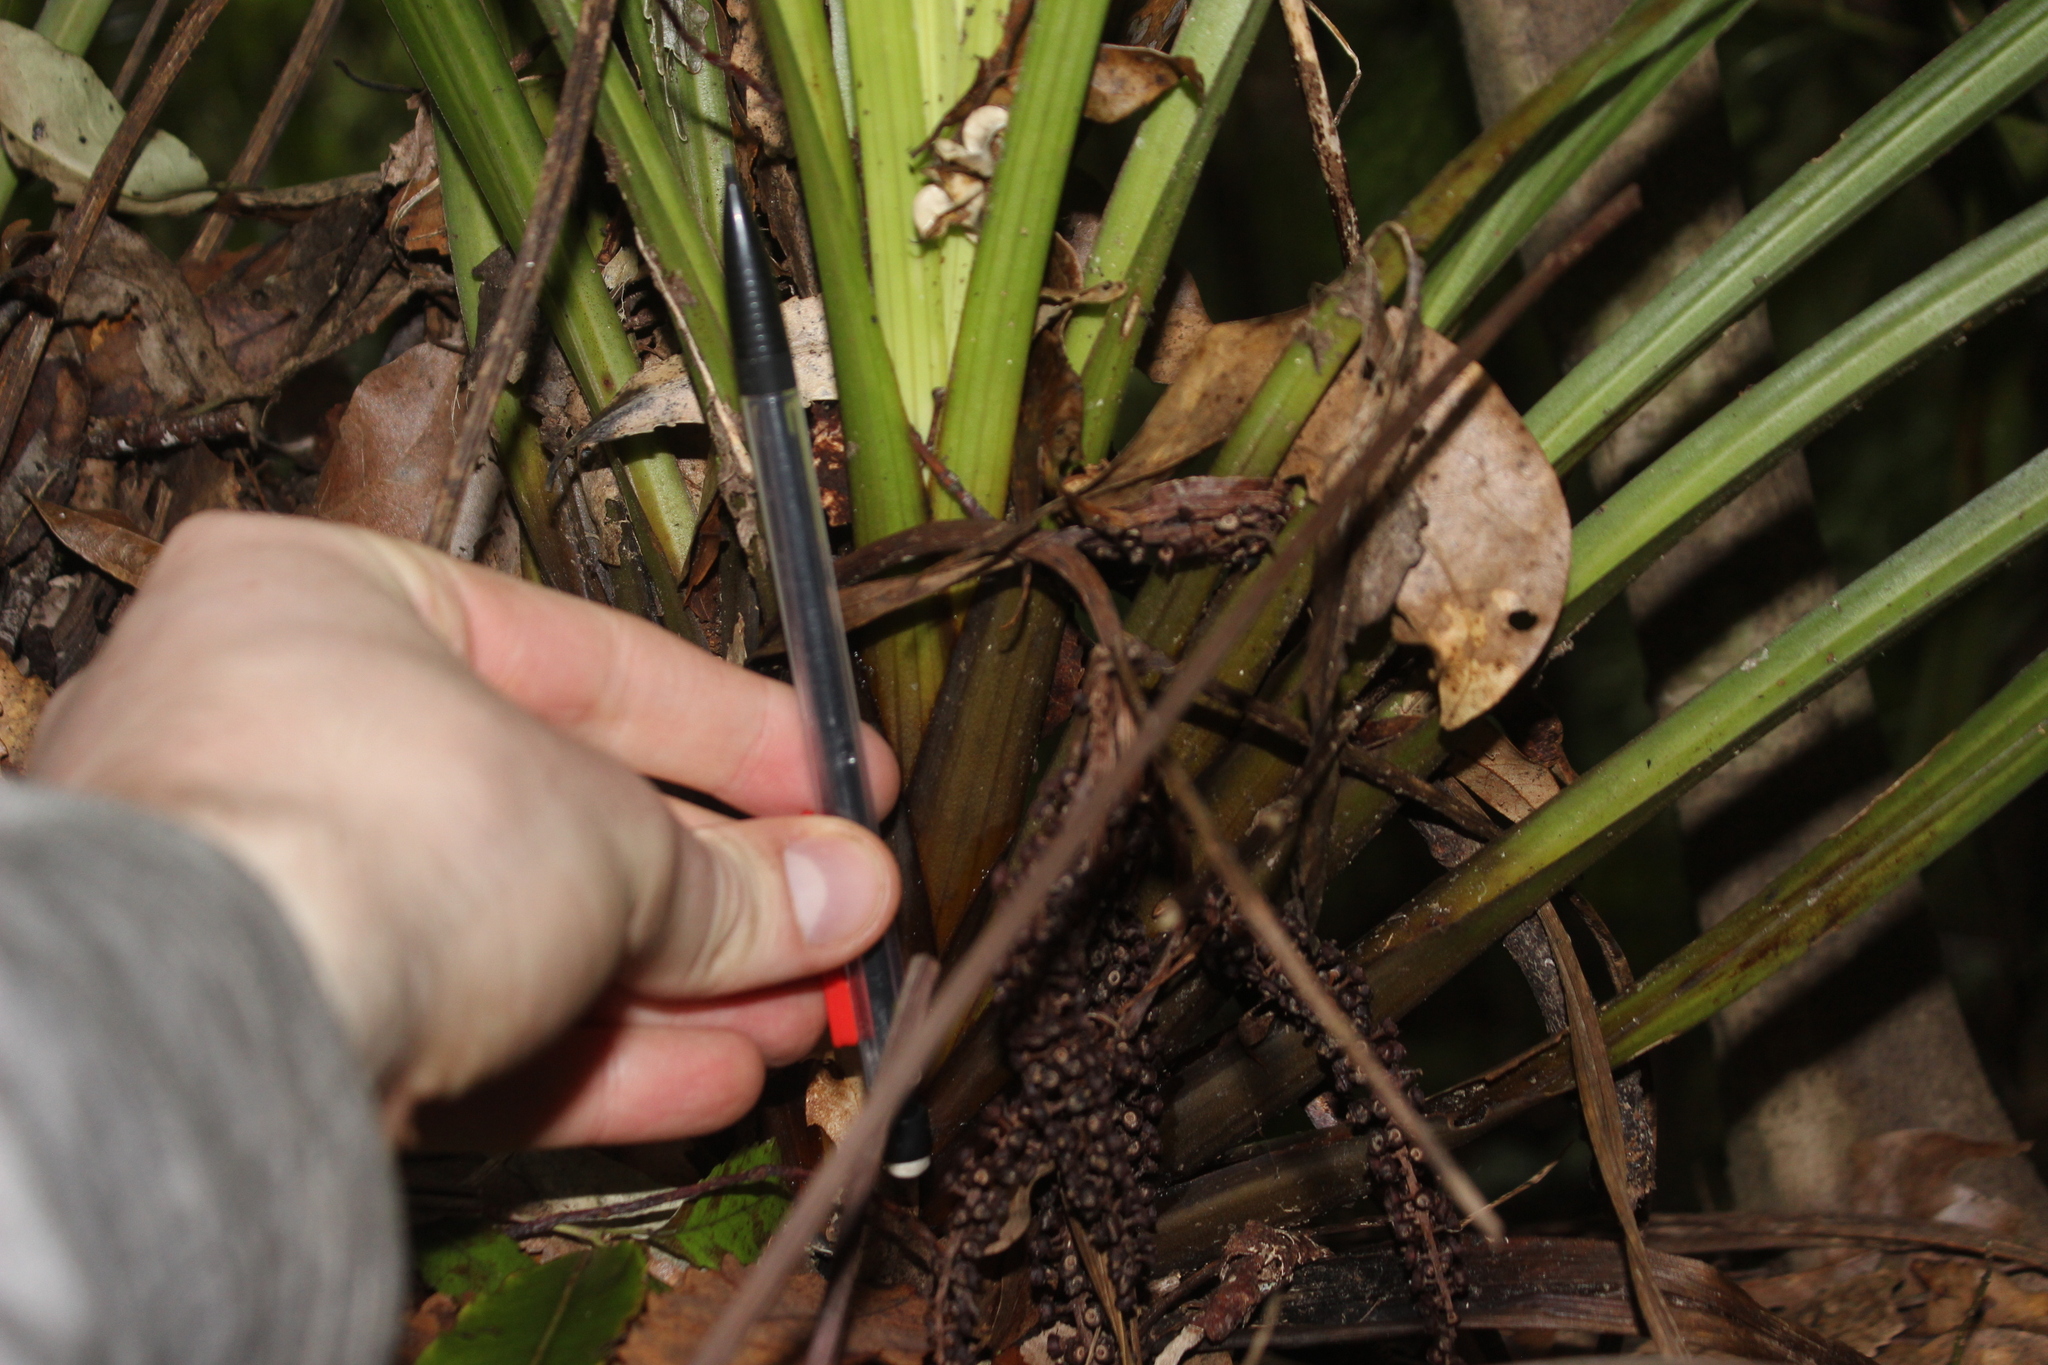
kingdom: Plantae
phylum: Tracheophyta
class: Liliopsida
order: Asparagales
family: Asteliaceae
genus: Astelia
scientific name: Astelia microsperma
